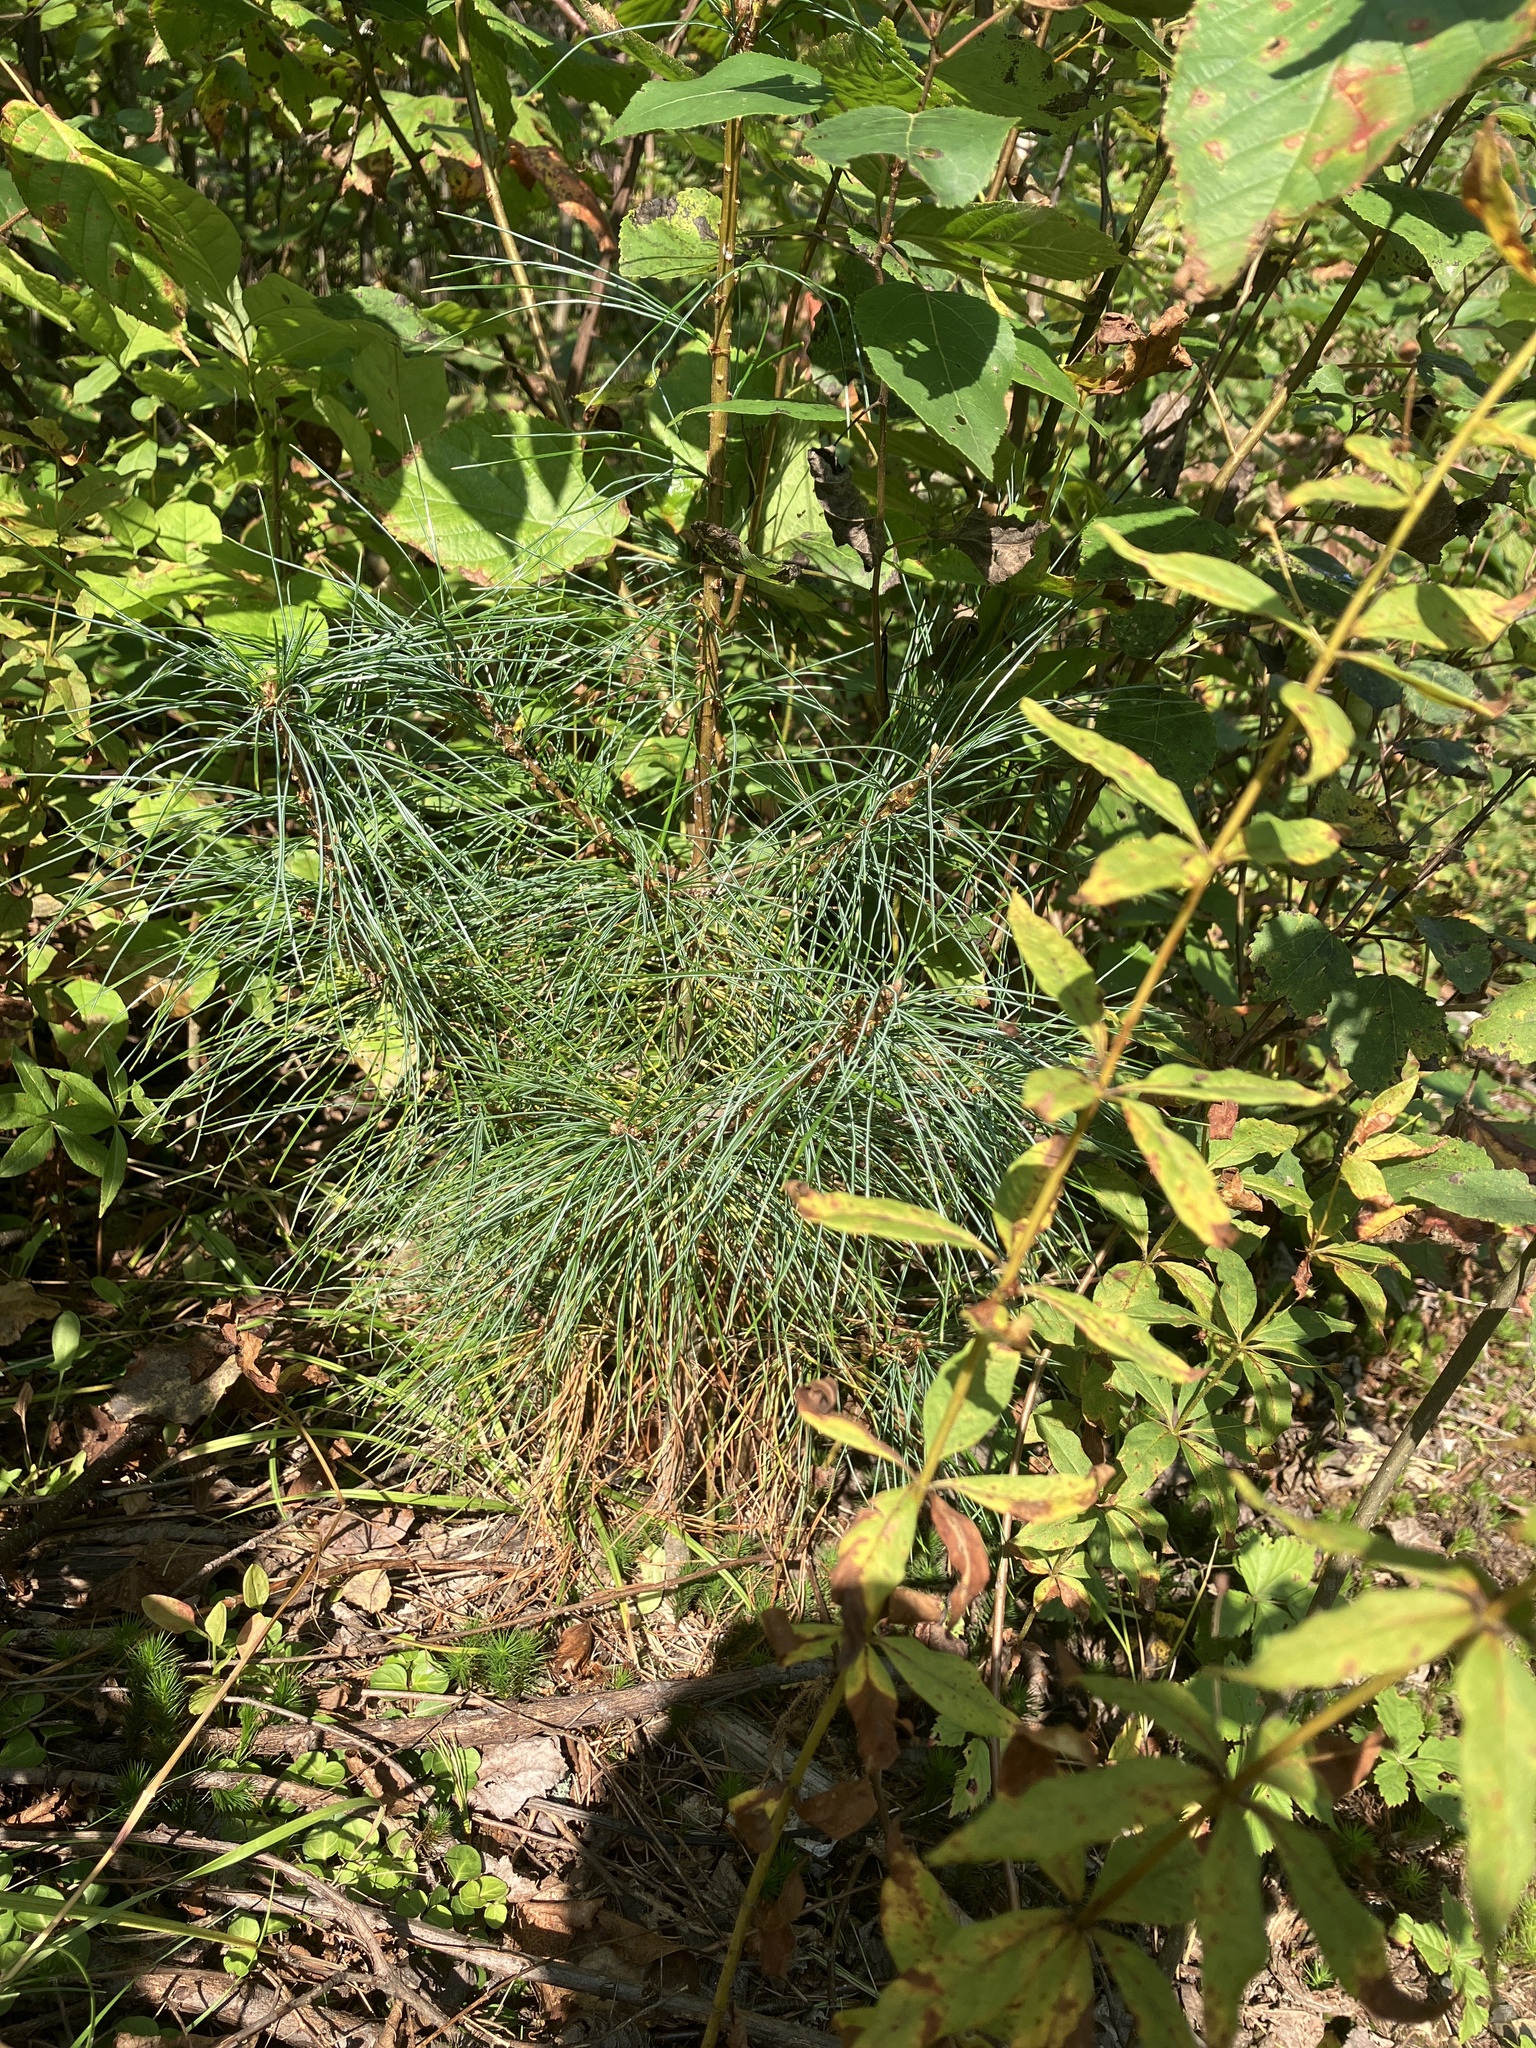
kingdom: Plantae
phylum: Tracheophyta
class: Pinopsida
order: Pinales
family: Pinaceae
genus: Pinus
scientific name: Pinus strobus
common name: Weymouth pine
